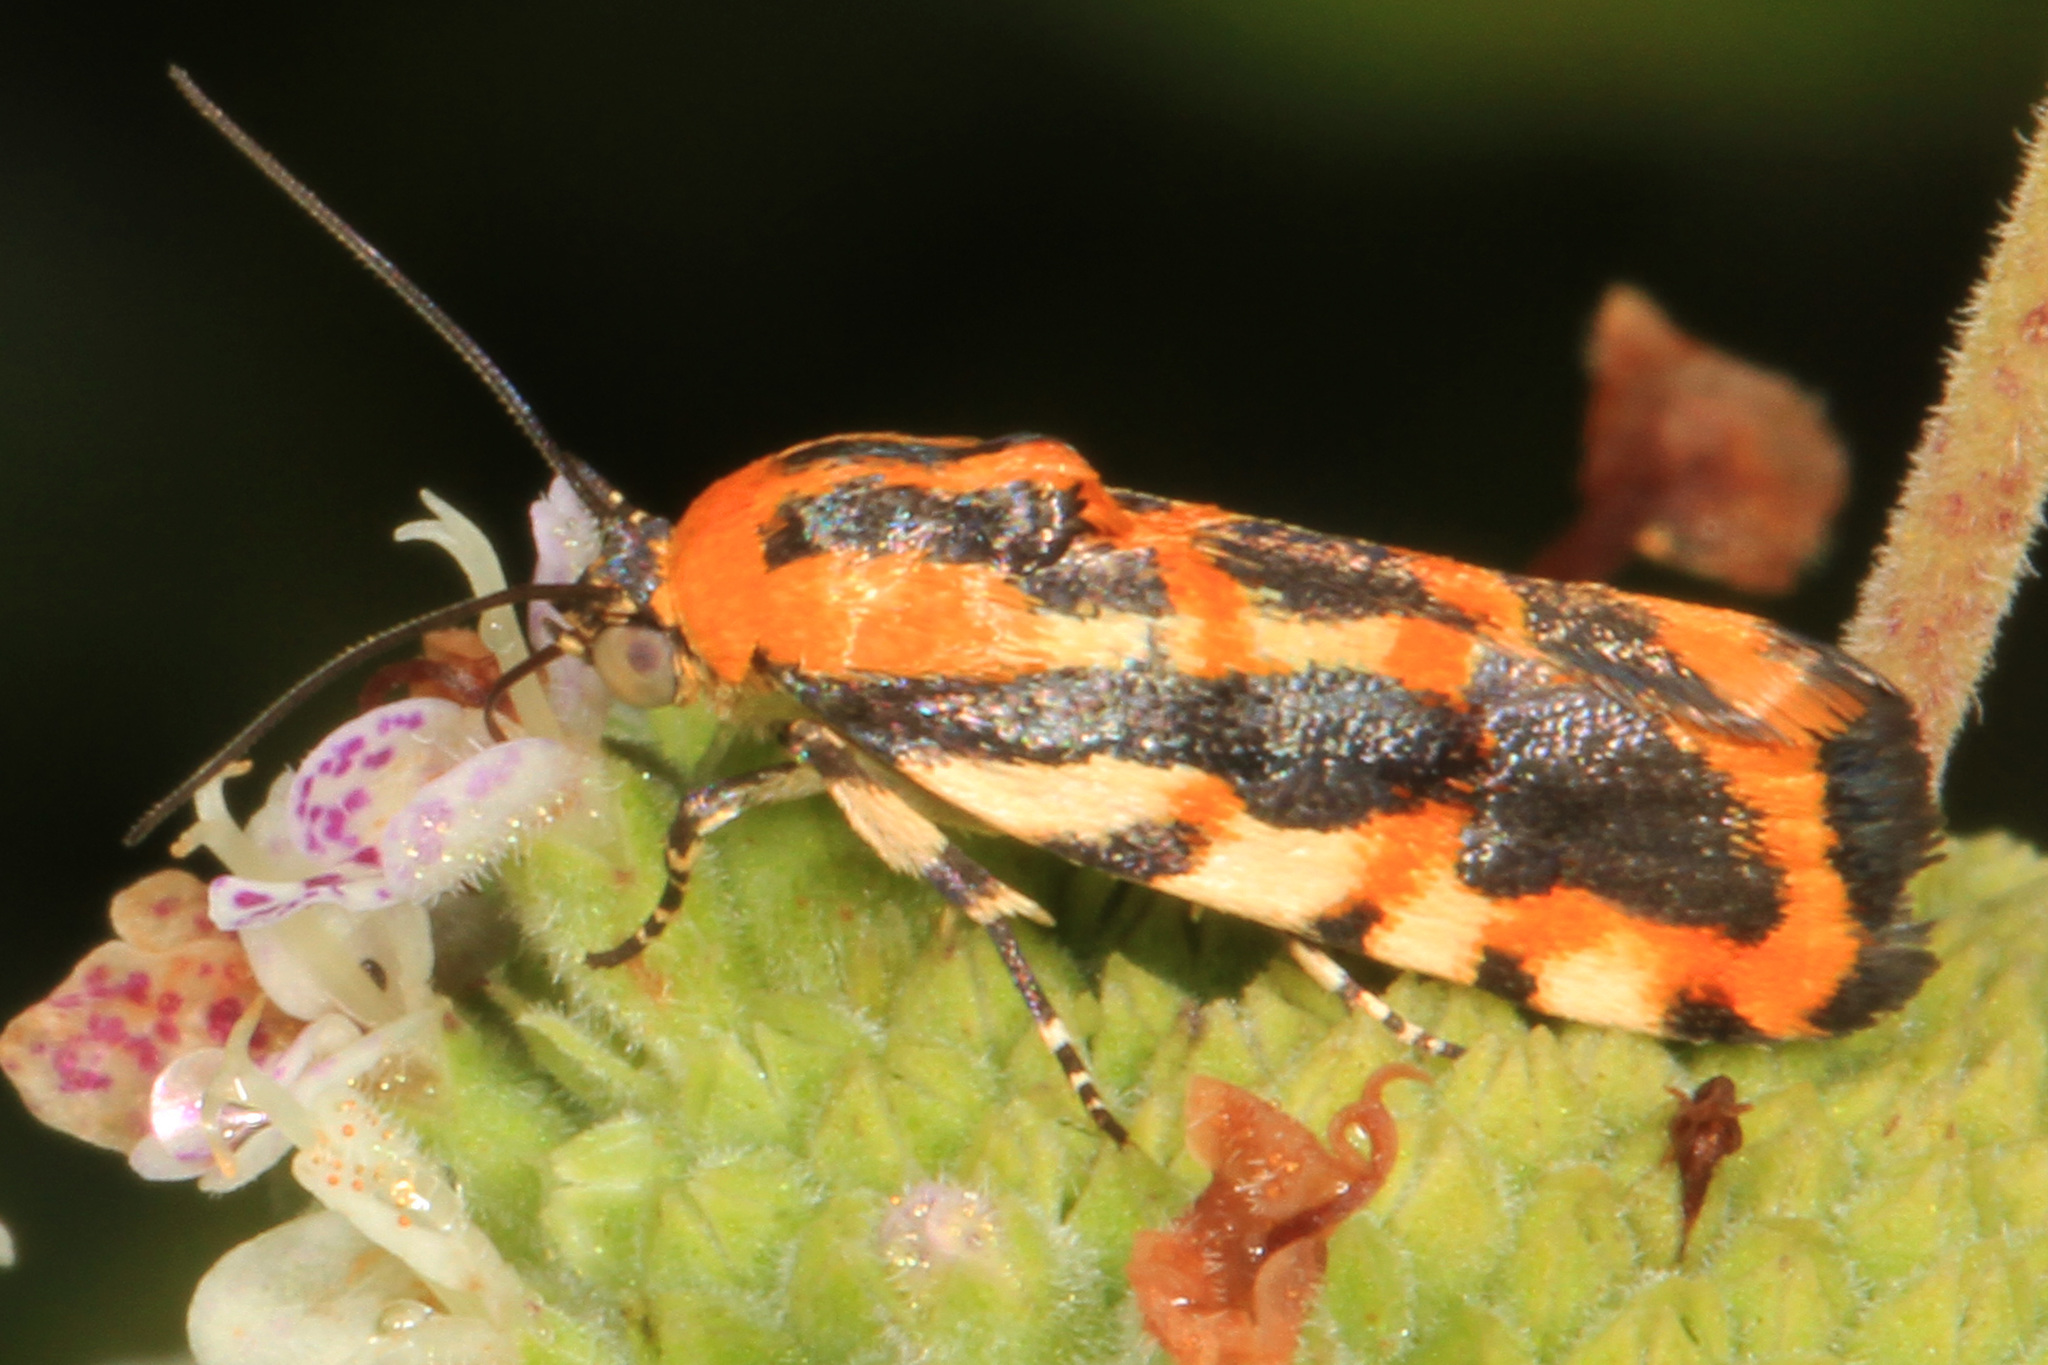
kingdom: Animalia
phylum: Arthropoda
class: Insecta
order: Lepidoptera
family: Noctuidae
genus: Acontia
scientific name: Acontia leo
